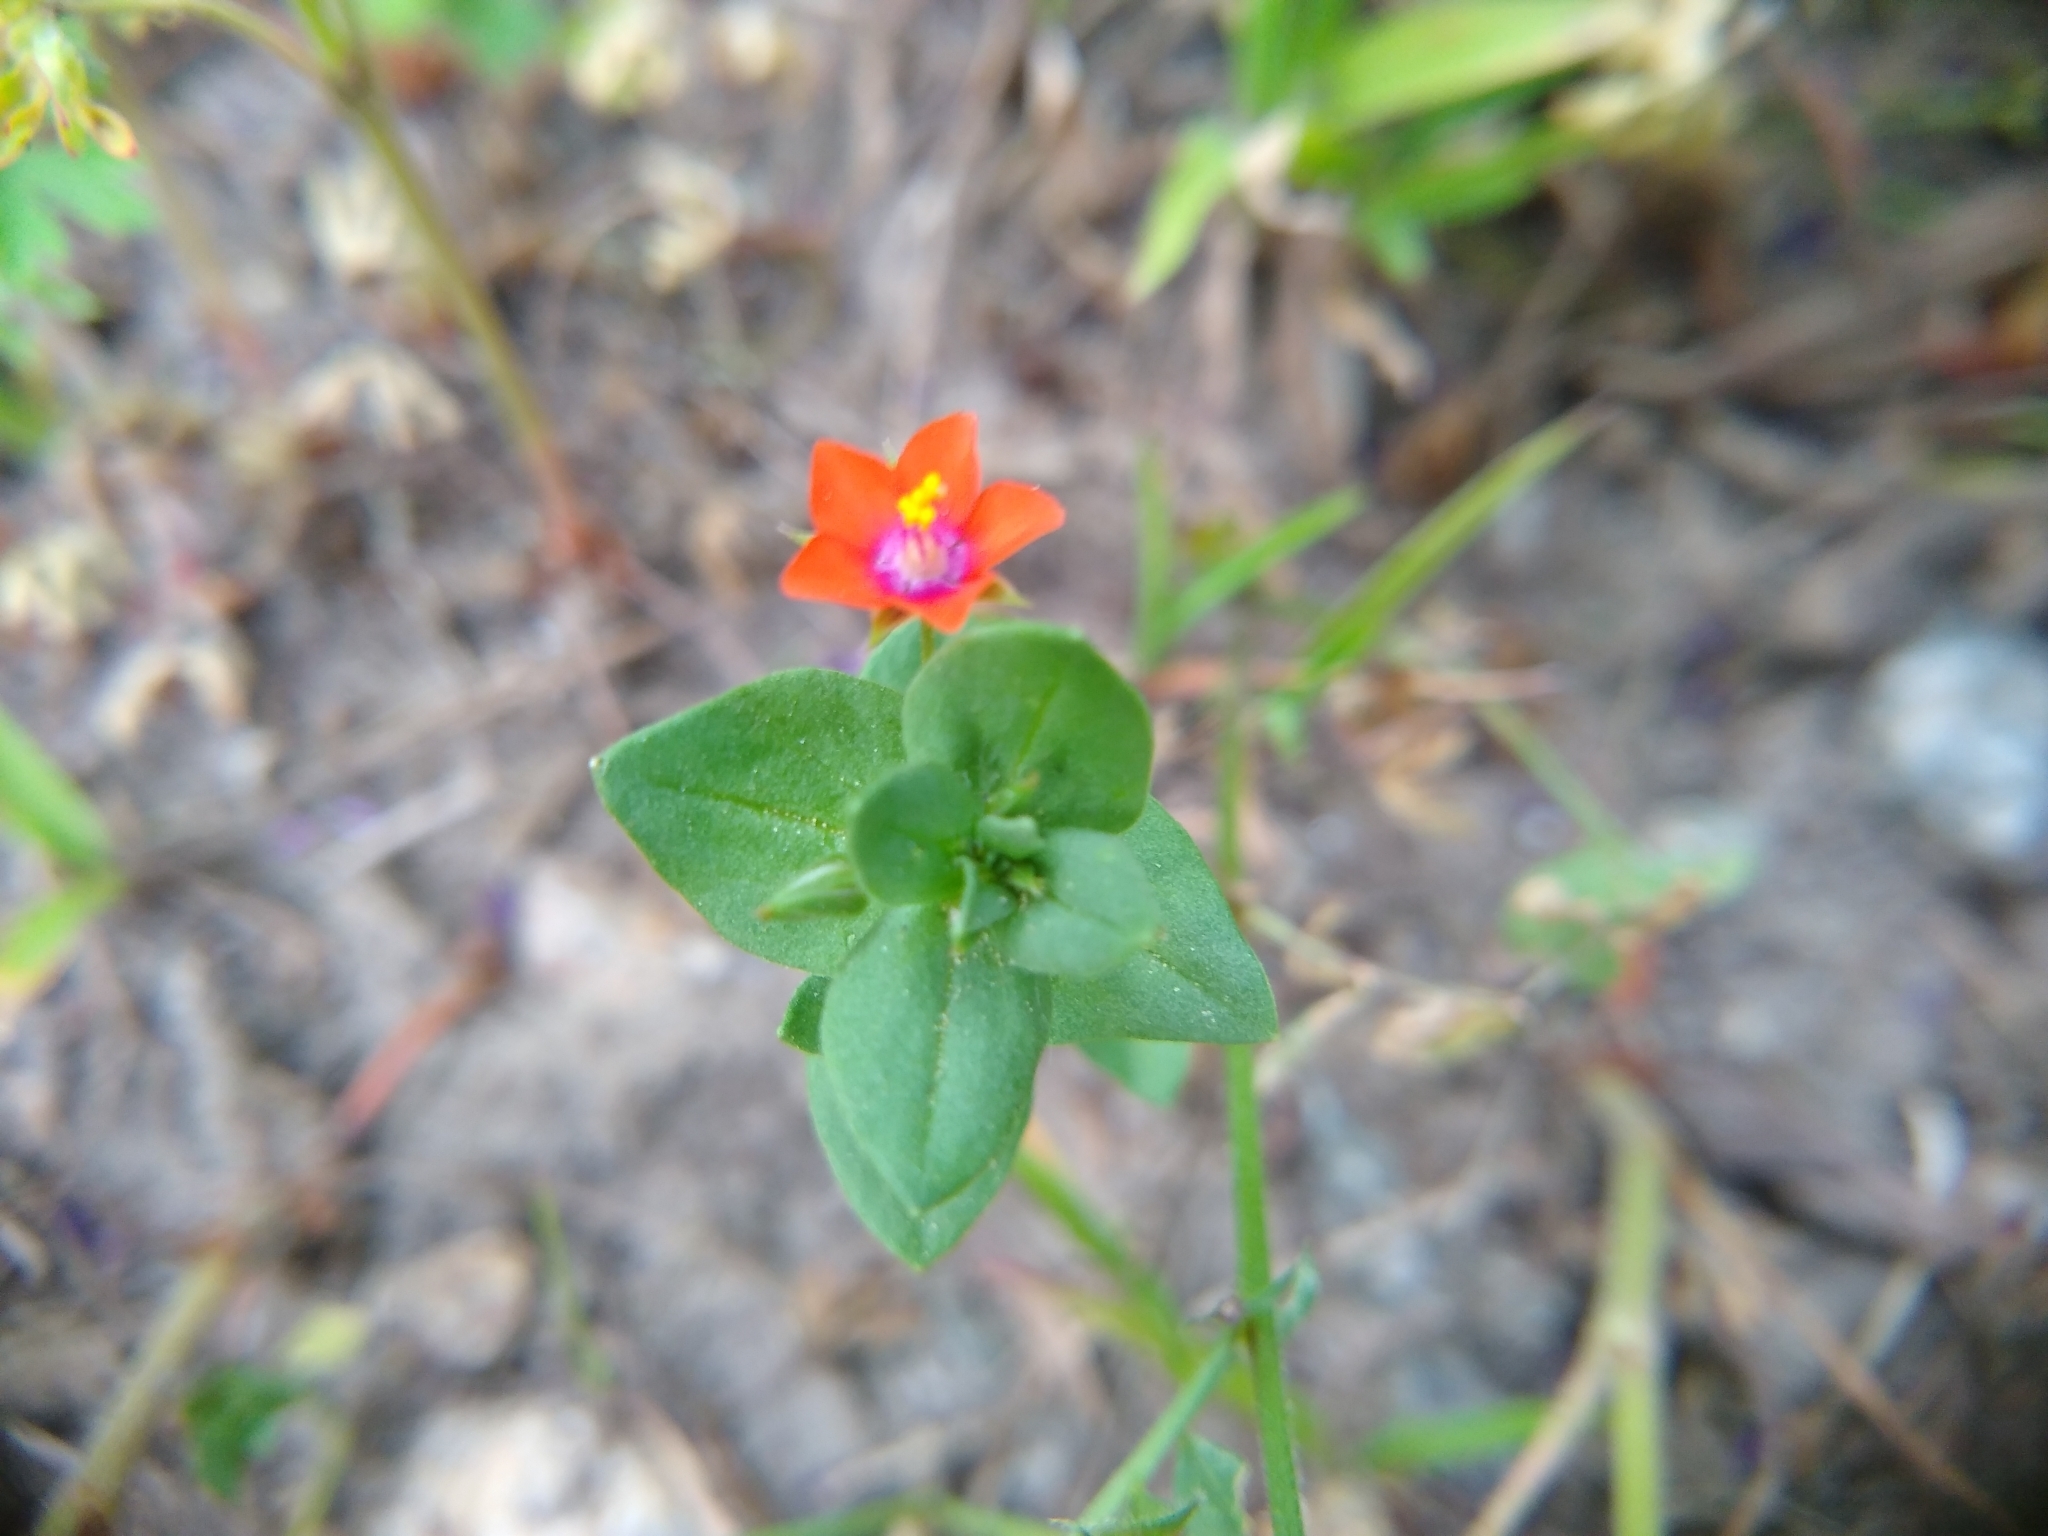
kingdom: Plantae
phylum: Tracheophyta
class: Magnoliopsida
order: Ericales
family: Primulaceae
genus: Lysimachia
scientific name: Lysimachia arvensis
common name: Scarlet pimpernel
